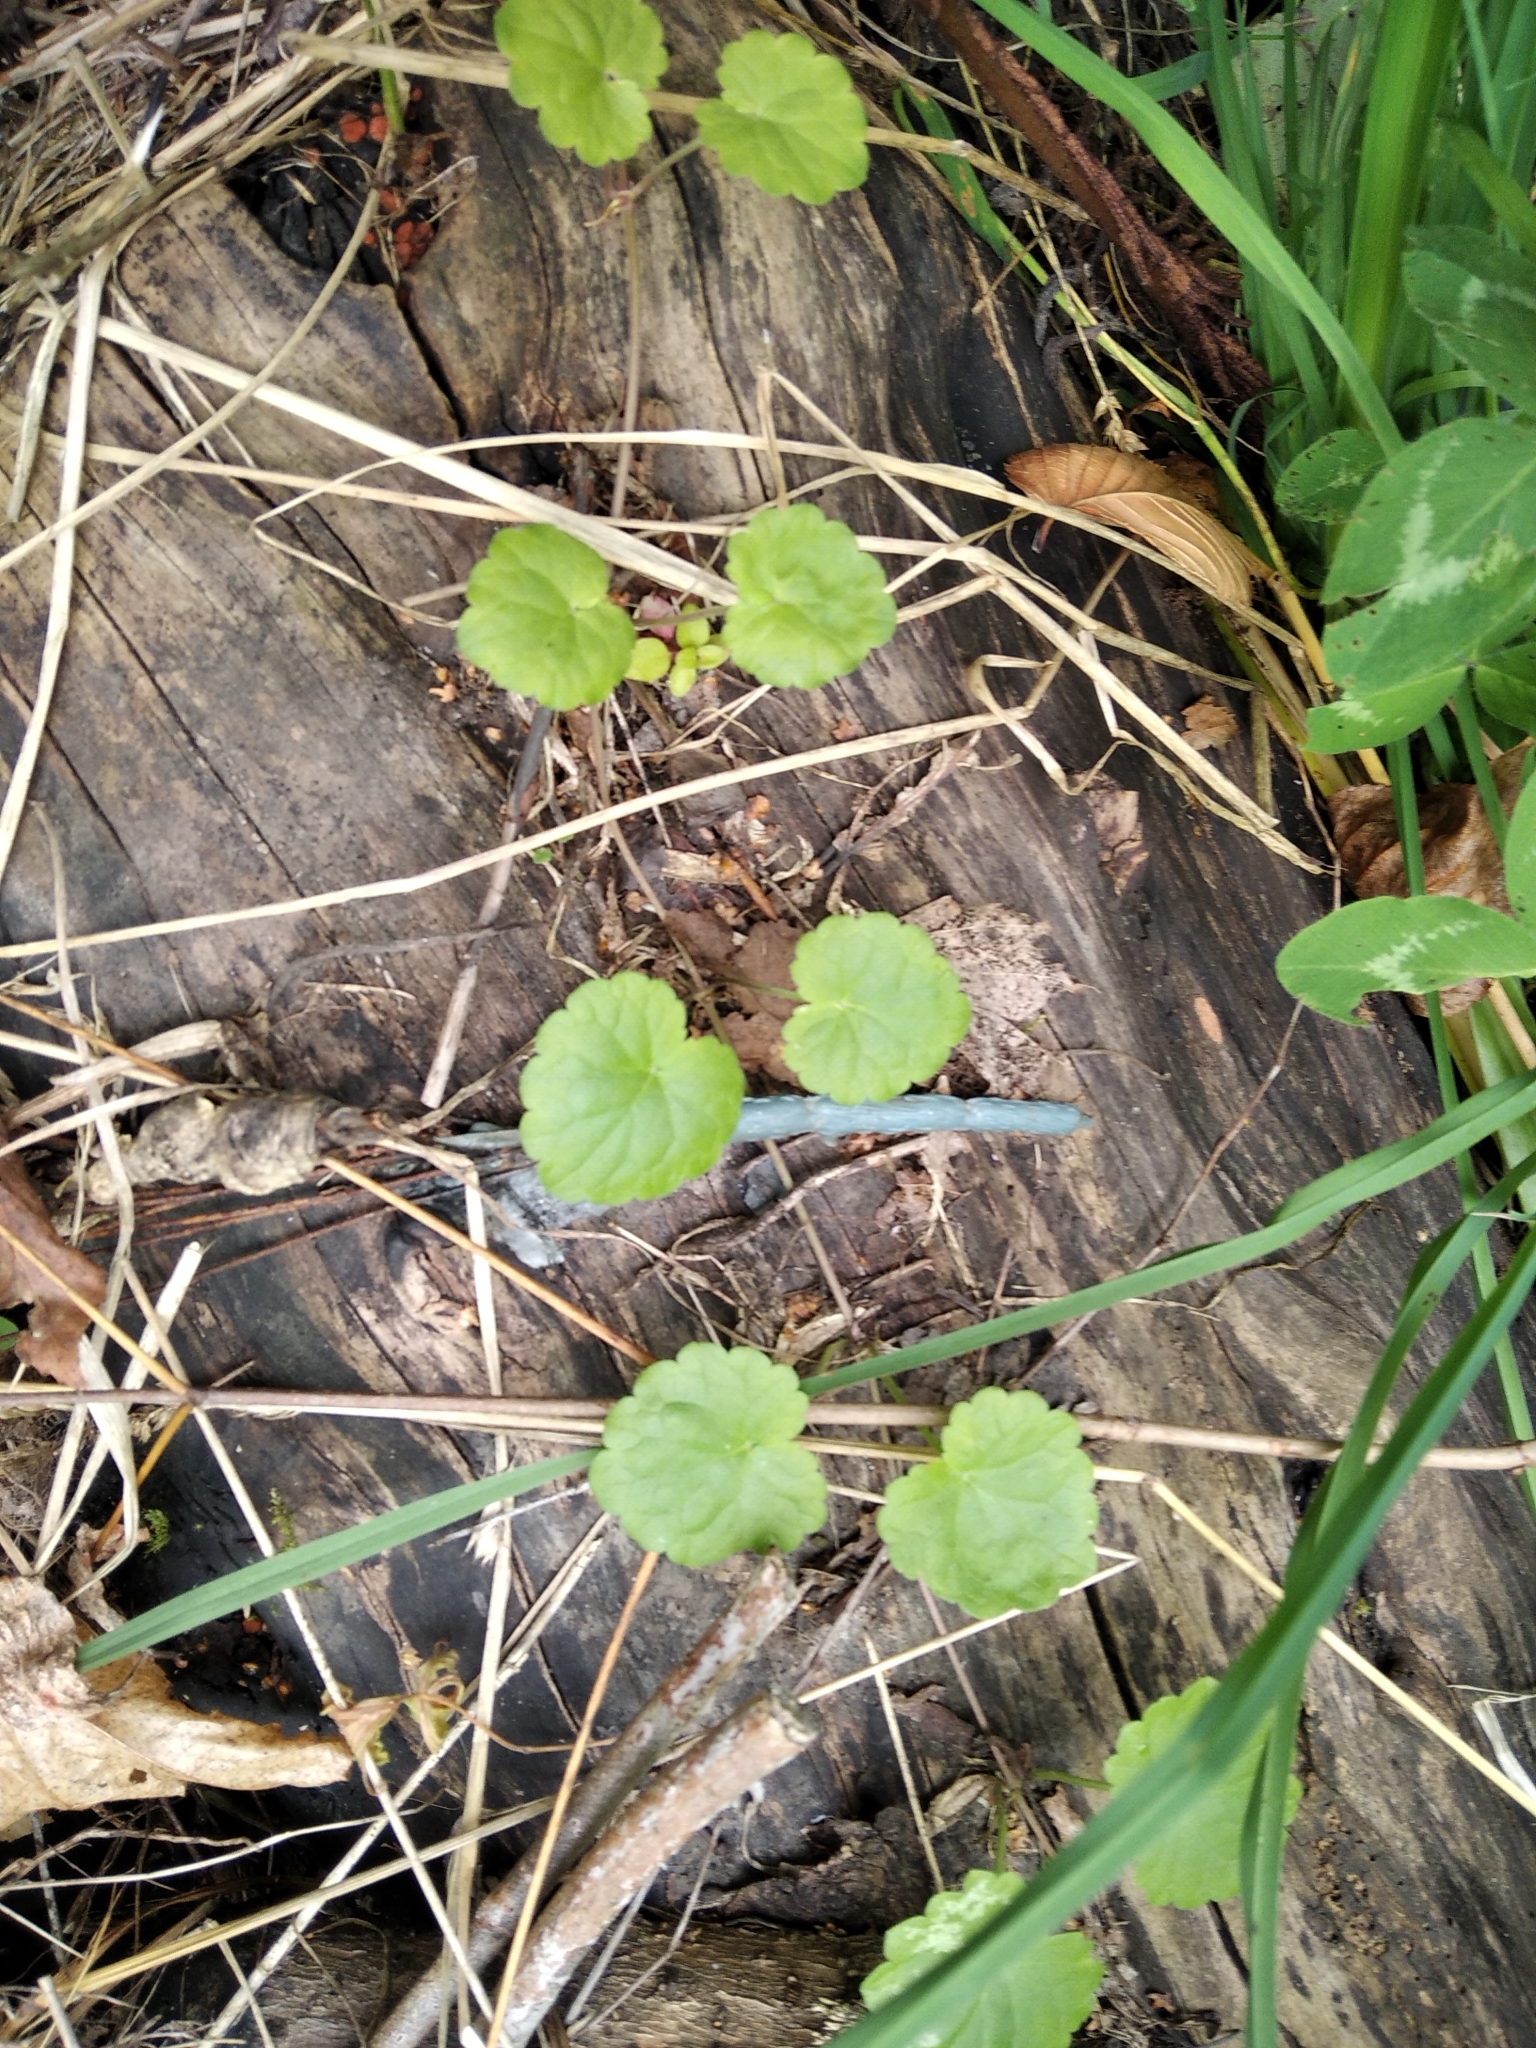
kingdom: Plantae
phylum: Tracheophyta
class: Magnoliopsida
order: Lamiales
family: Lamiaceae
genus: Glechoma
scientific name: Glechoma hederacea
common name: Ground ivy
